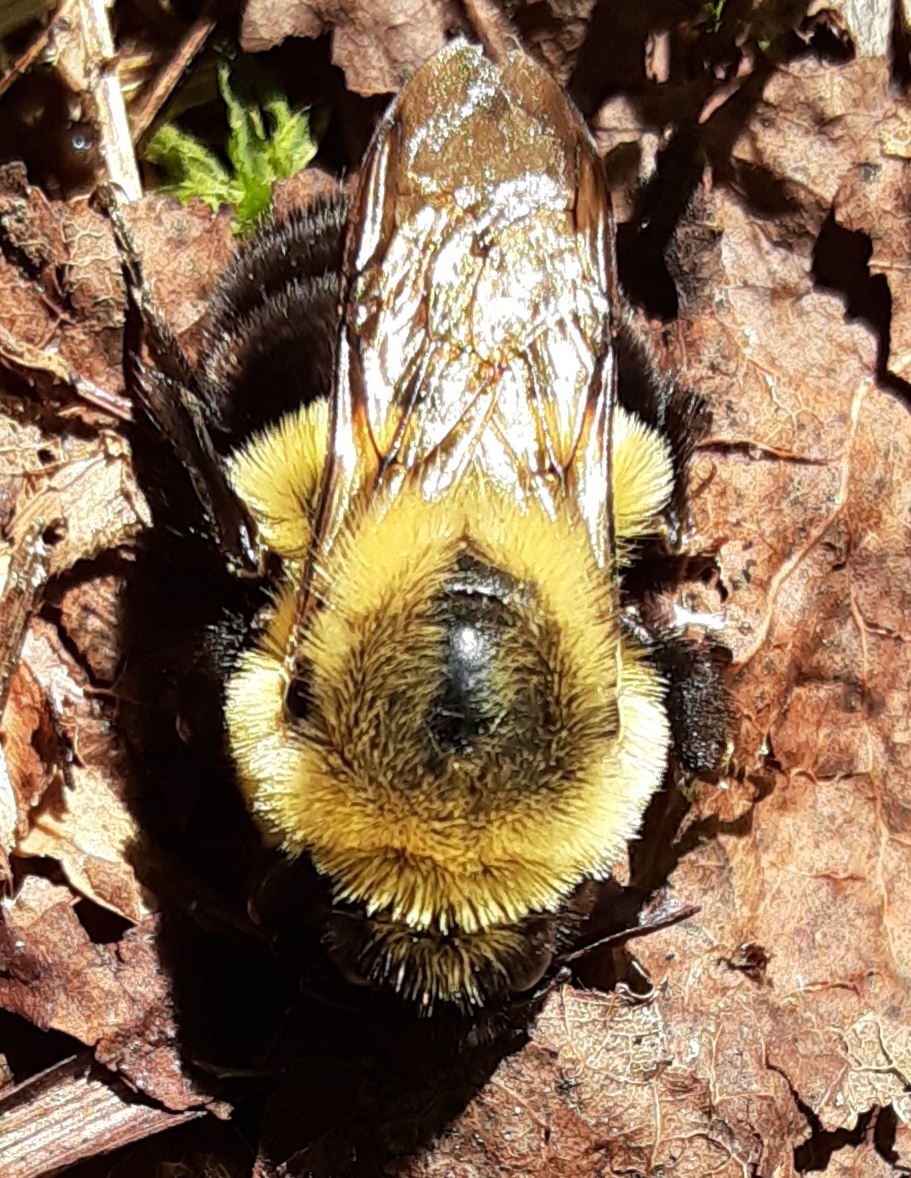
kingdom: Animalia
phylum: Arthropoda
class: Insecta
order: Hymenoptera
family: Apidae
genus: Bombus
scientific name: Bombus impatiens
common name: Common eastern bumble bee
